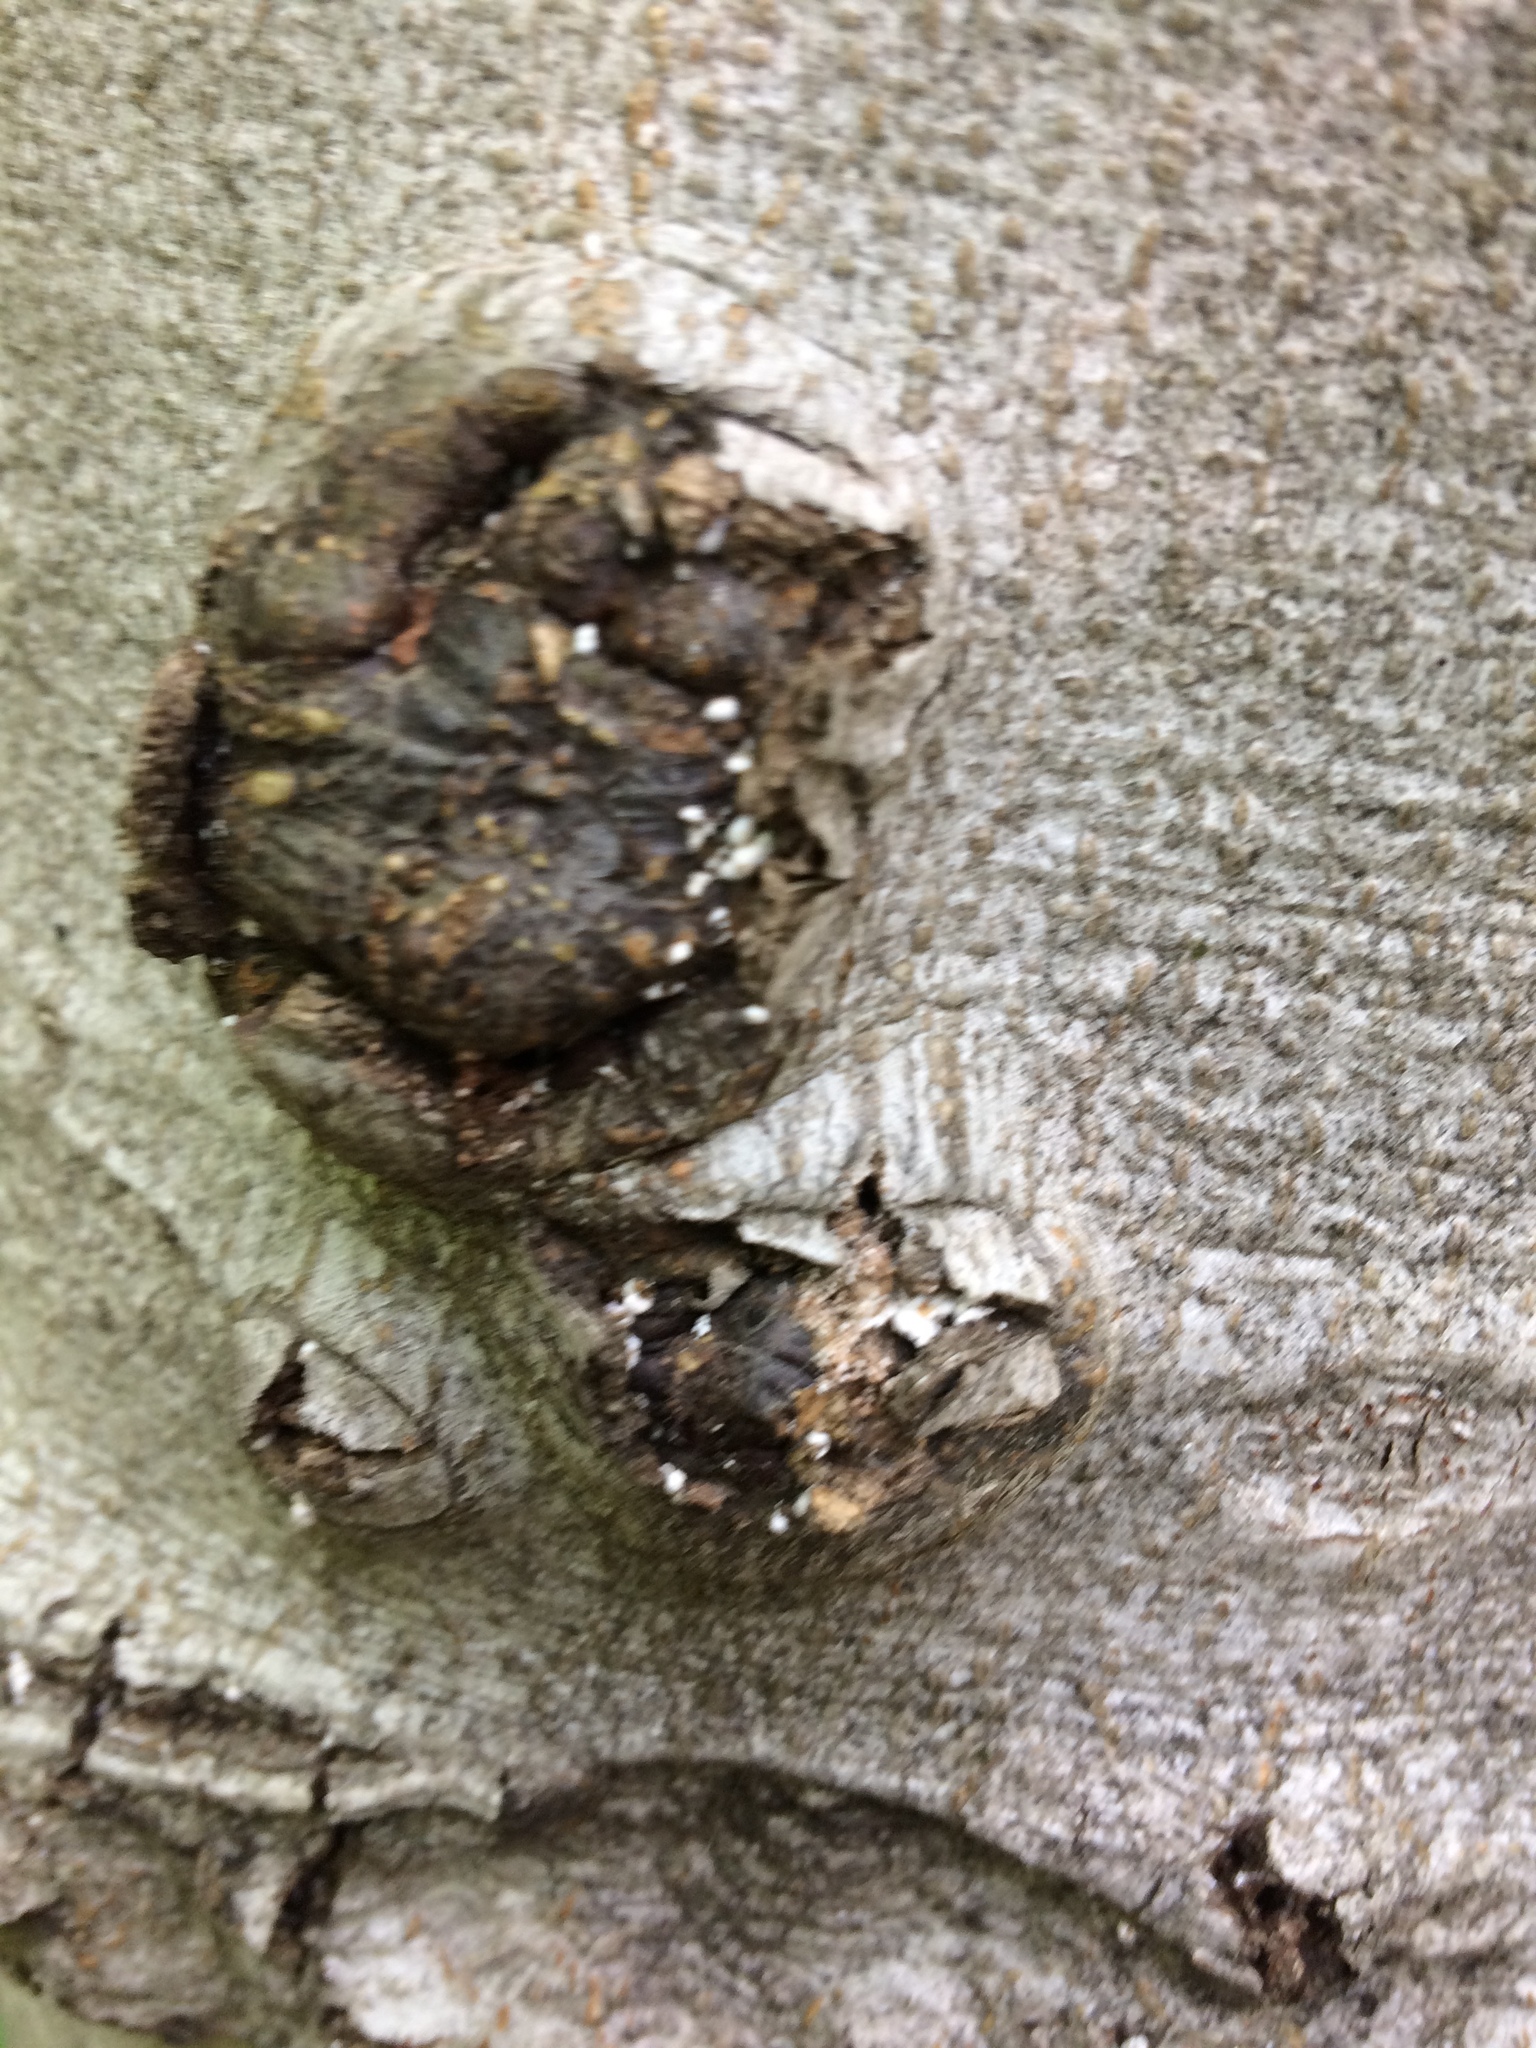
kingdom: Animalia
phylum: Arthropoda
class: Insecta
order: Hemiptera
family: Eriococcidae
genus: Cryptococcus
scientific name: Cryptococcus fagisuga
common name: Beech scale
